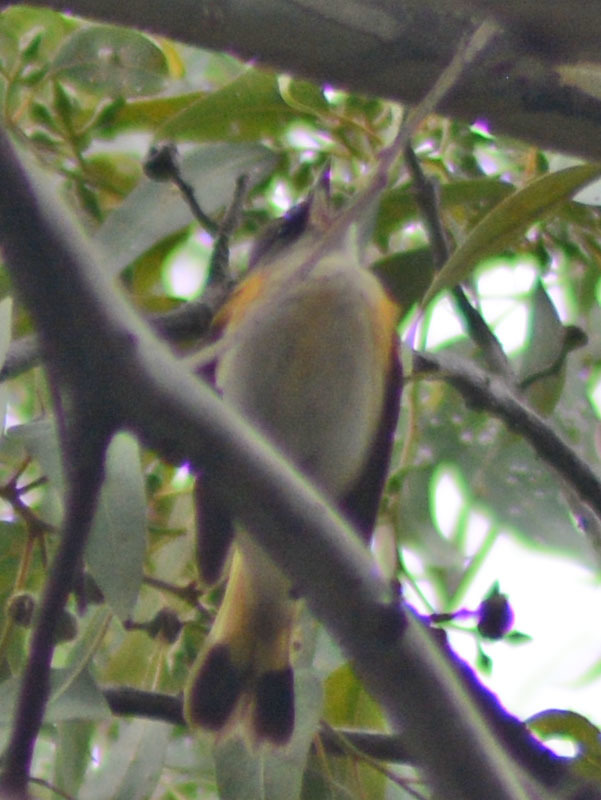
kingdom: Animalia
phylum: Chordata
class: Aves
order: Passeriformes
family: Parulidae
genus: Setophaga
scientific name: Setophaga ruticilla
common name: American redstart
